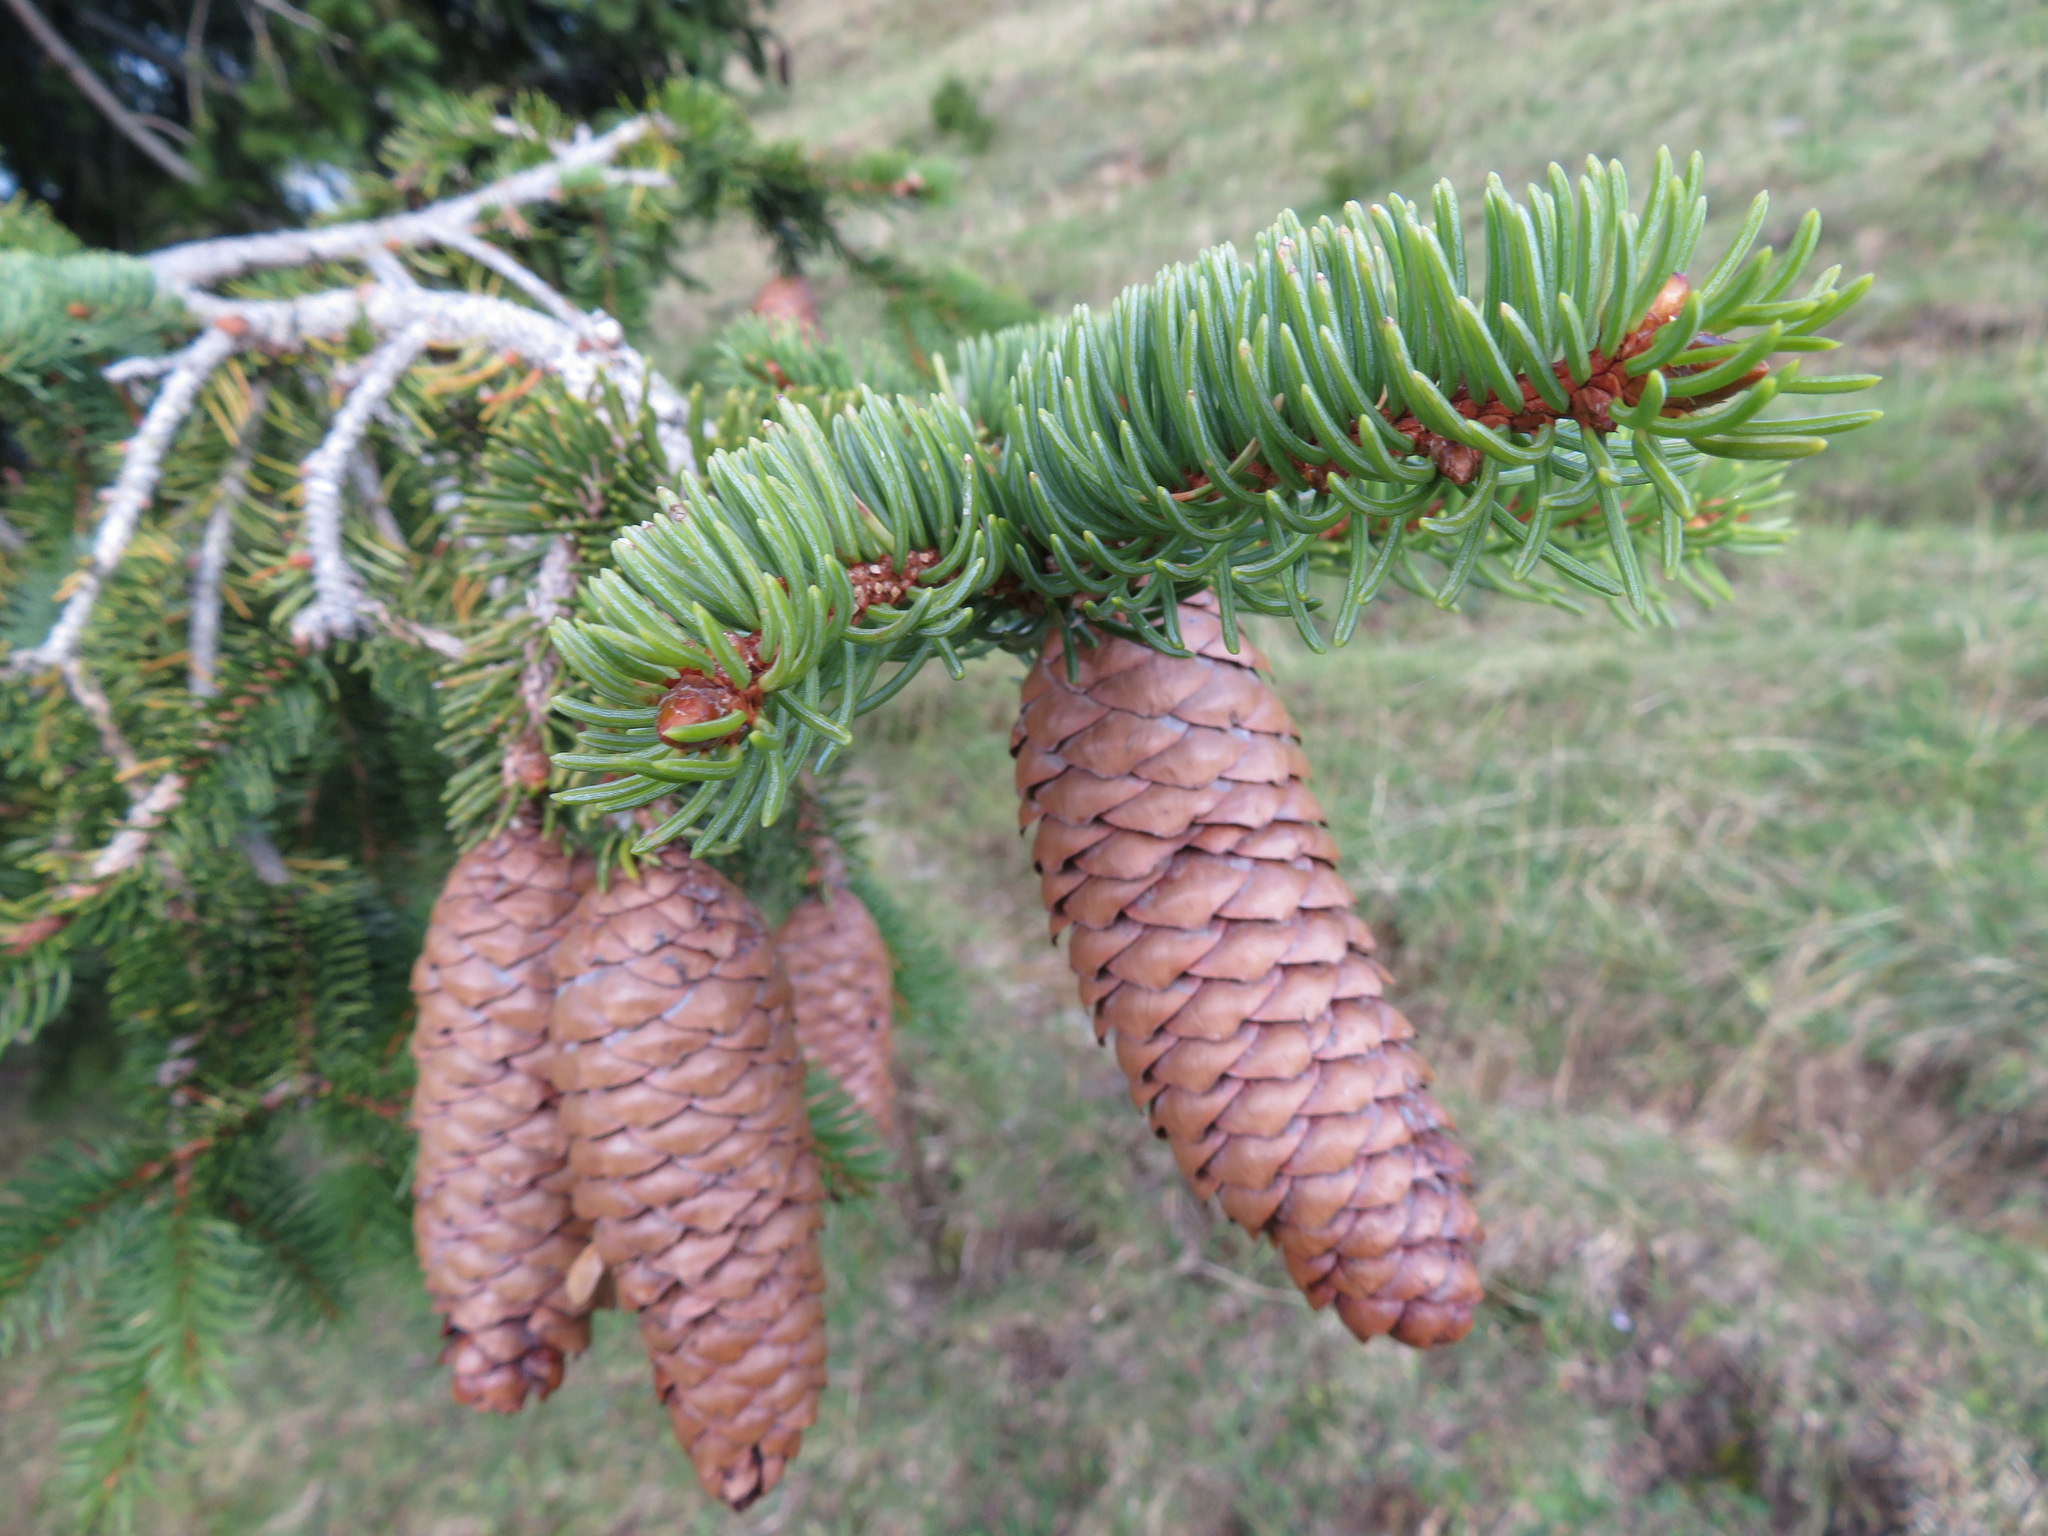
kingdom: Plantae
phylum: Tracheophyta
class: Pinopsida
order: Pinales
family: Pinaceae
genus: Picea
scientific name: Picea abies
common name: Norway spruce
